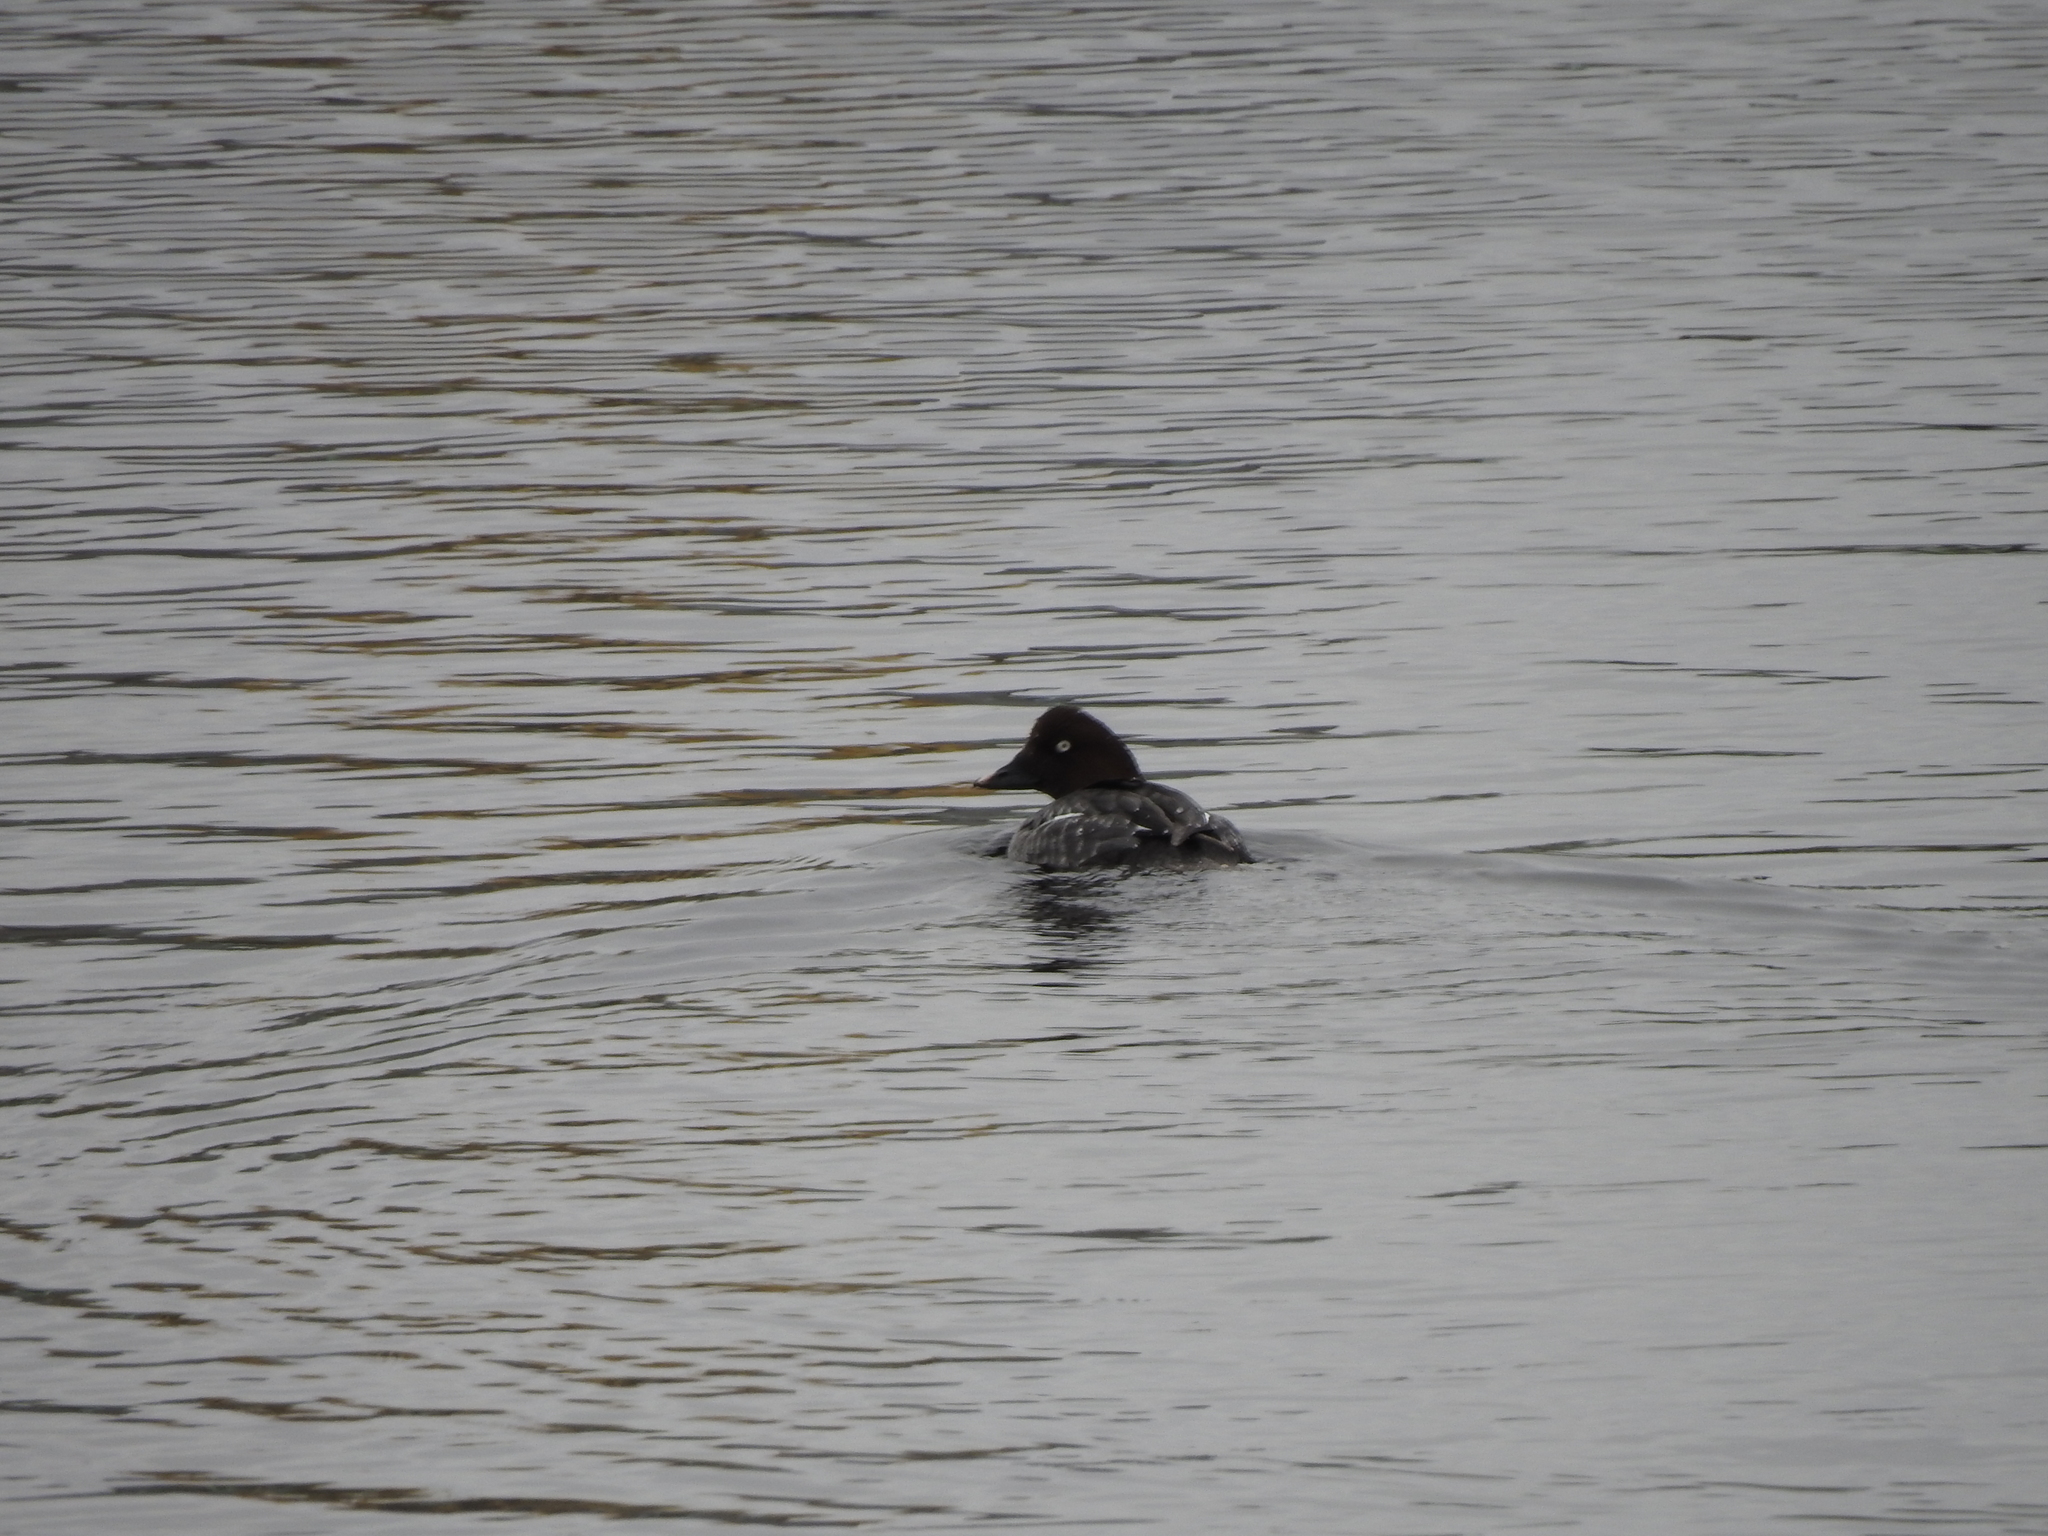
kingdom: Animalia
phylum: Chordata
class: Aves
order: Anseriformes
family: Anatidae
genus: Bucephala
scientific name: Bucephala clangula
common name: Common goldeneye
